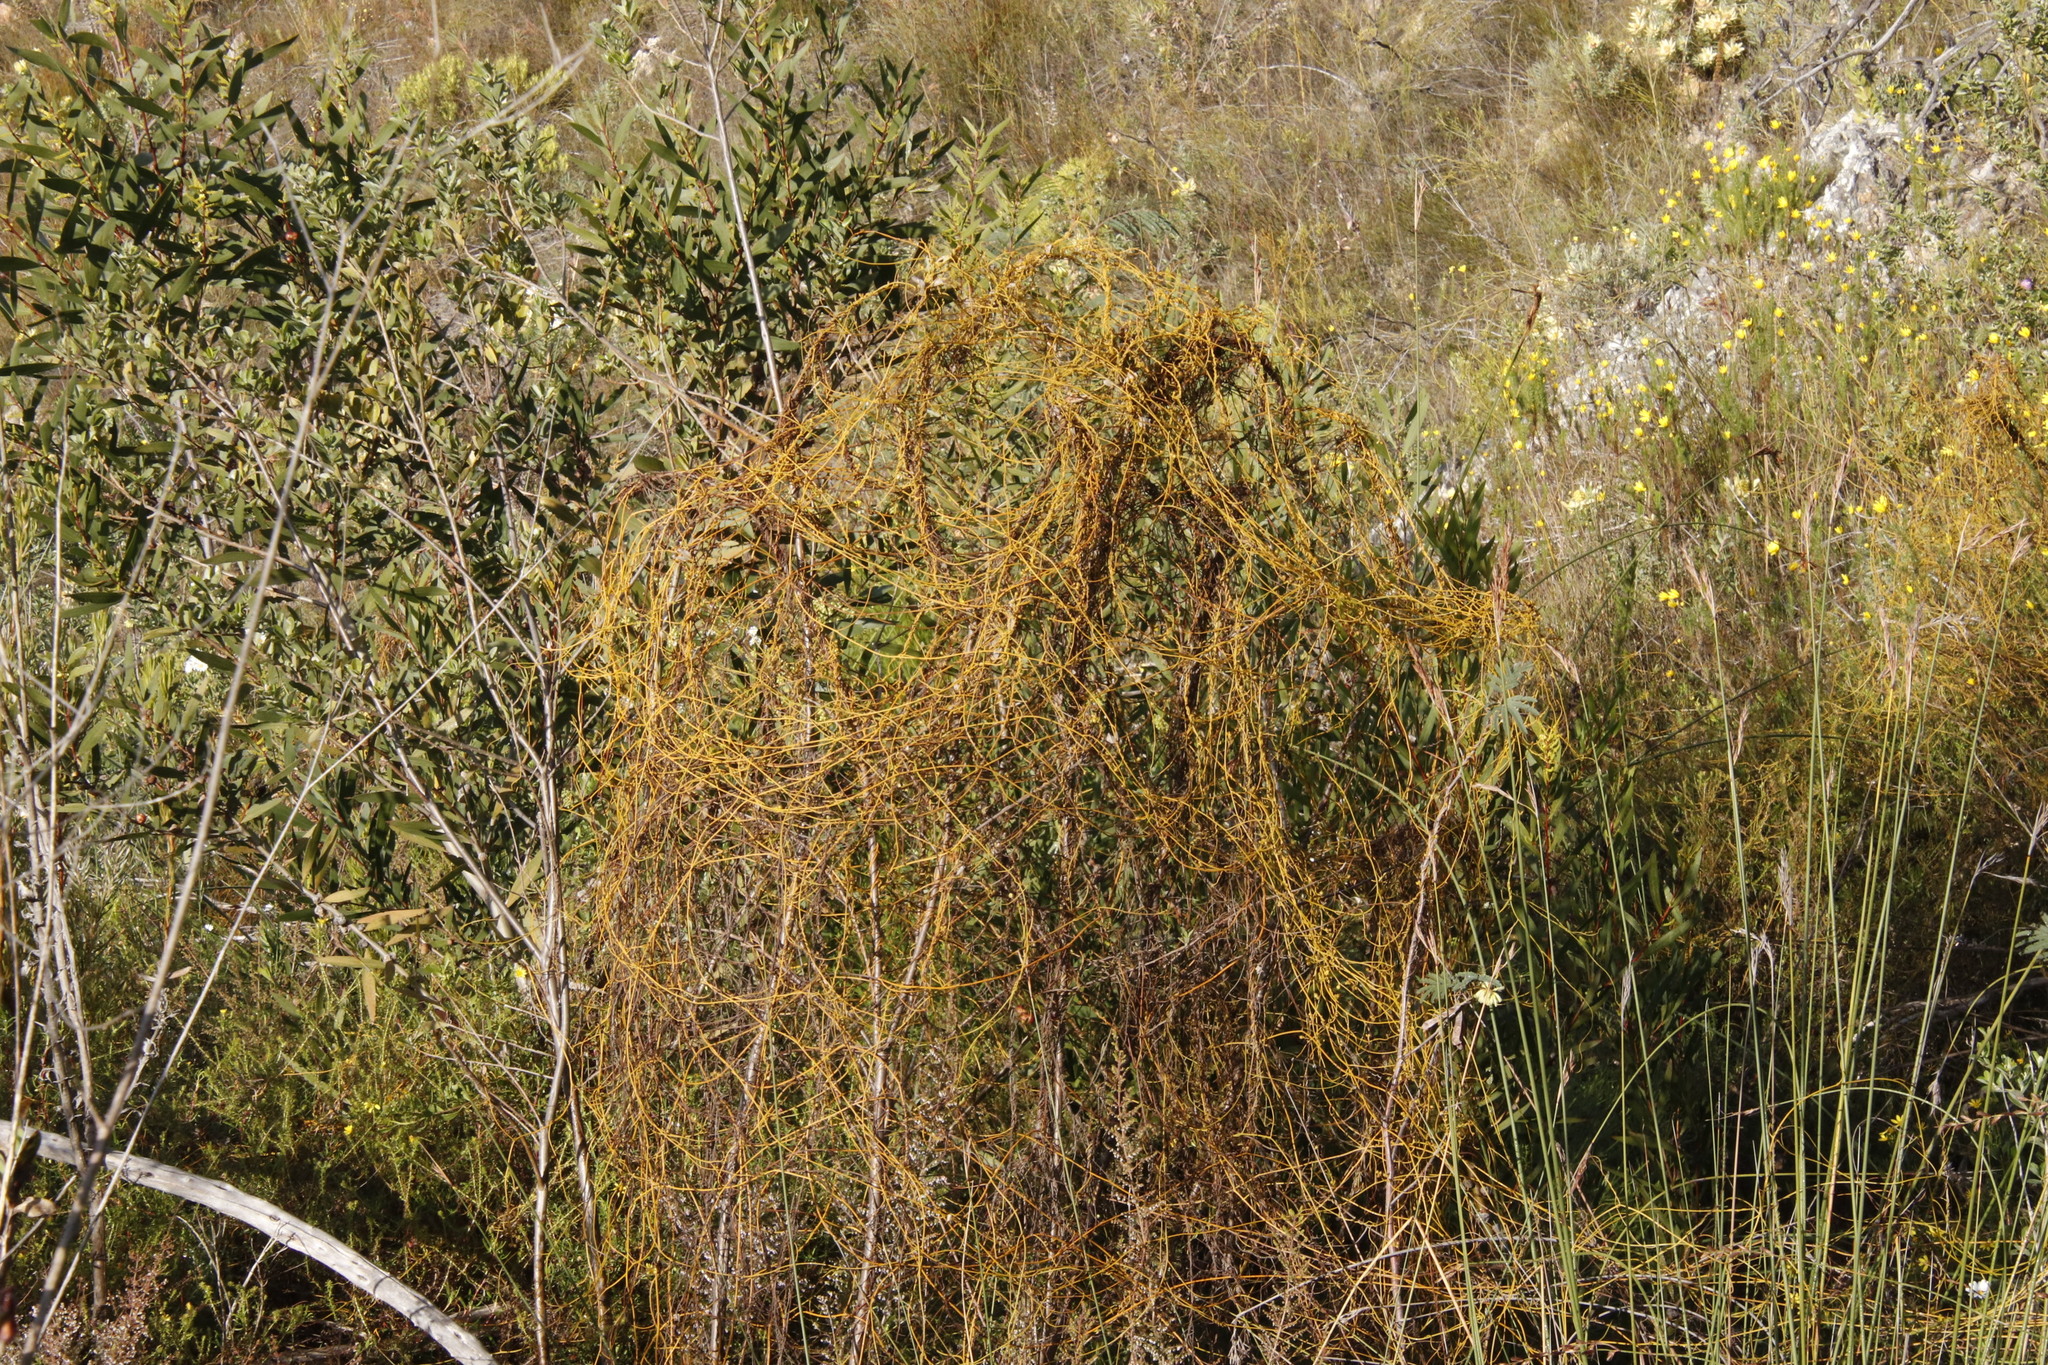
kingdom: Plantae
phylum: Tracheophyta
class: Magnoliopsida
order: Laurales
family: Lauraceae
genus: Cassytha
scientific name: Cassytha ciliolata
